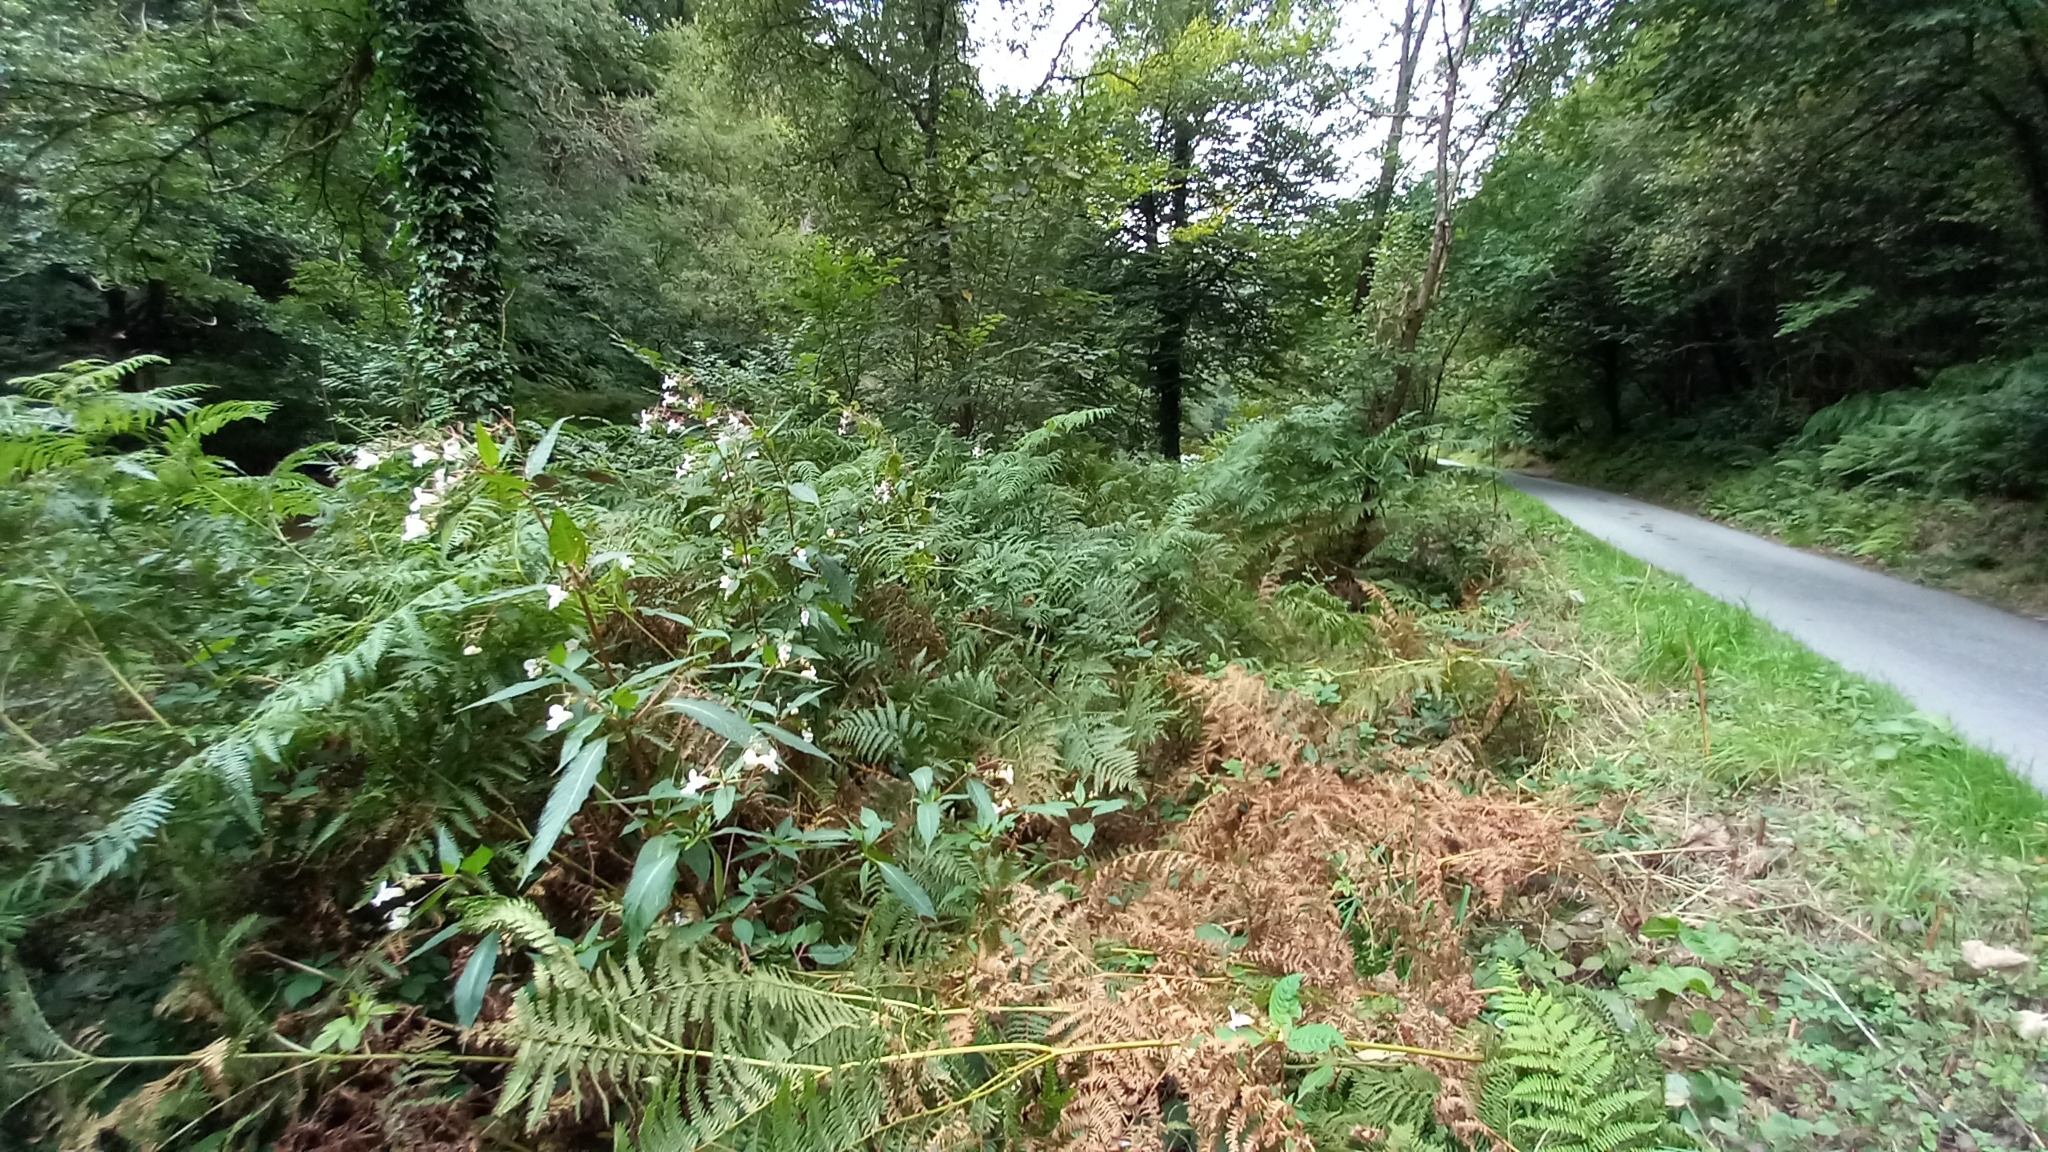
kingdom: Plantae
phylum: Tracheophyta
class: Magnoliopsida
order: Ericales
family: Balsaminaceae
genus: Impatiens
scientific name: Impatiens glandulifera
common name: Himalayan balsam
